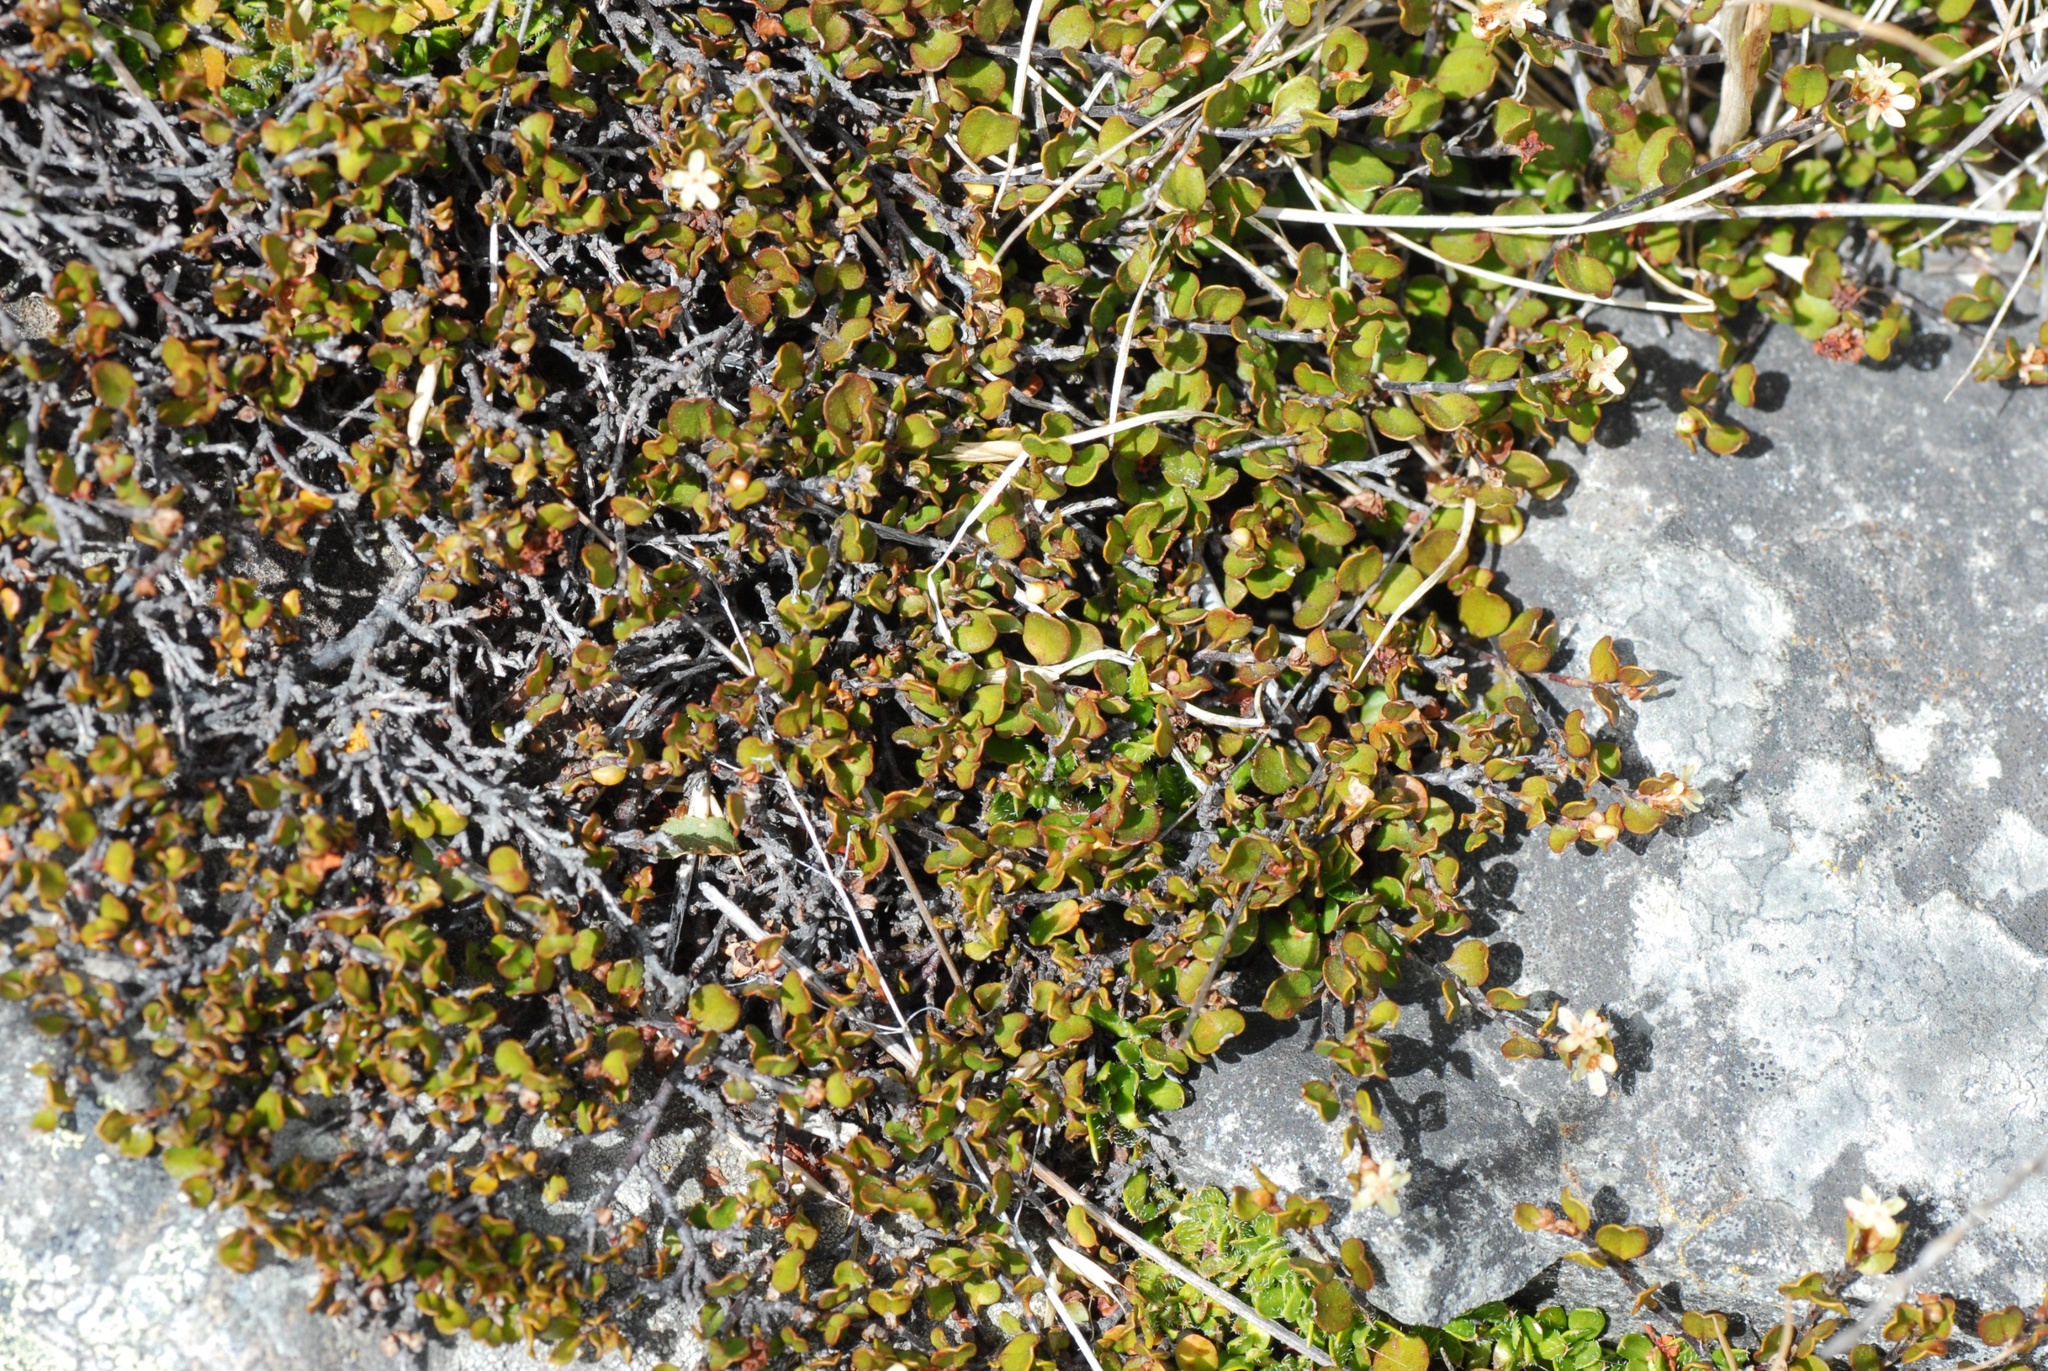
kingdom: Plantae
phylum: Tracheophyta
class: Magnoliopsida
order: Caryophyllales
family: Polygonaceae
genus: Muehlenbeckia
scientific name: Muehlenbeckia axillaris
